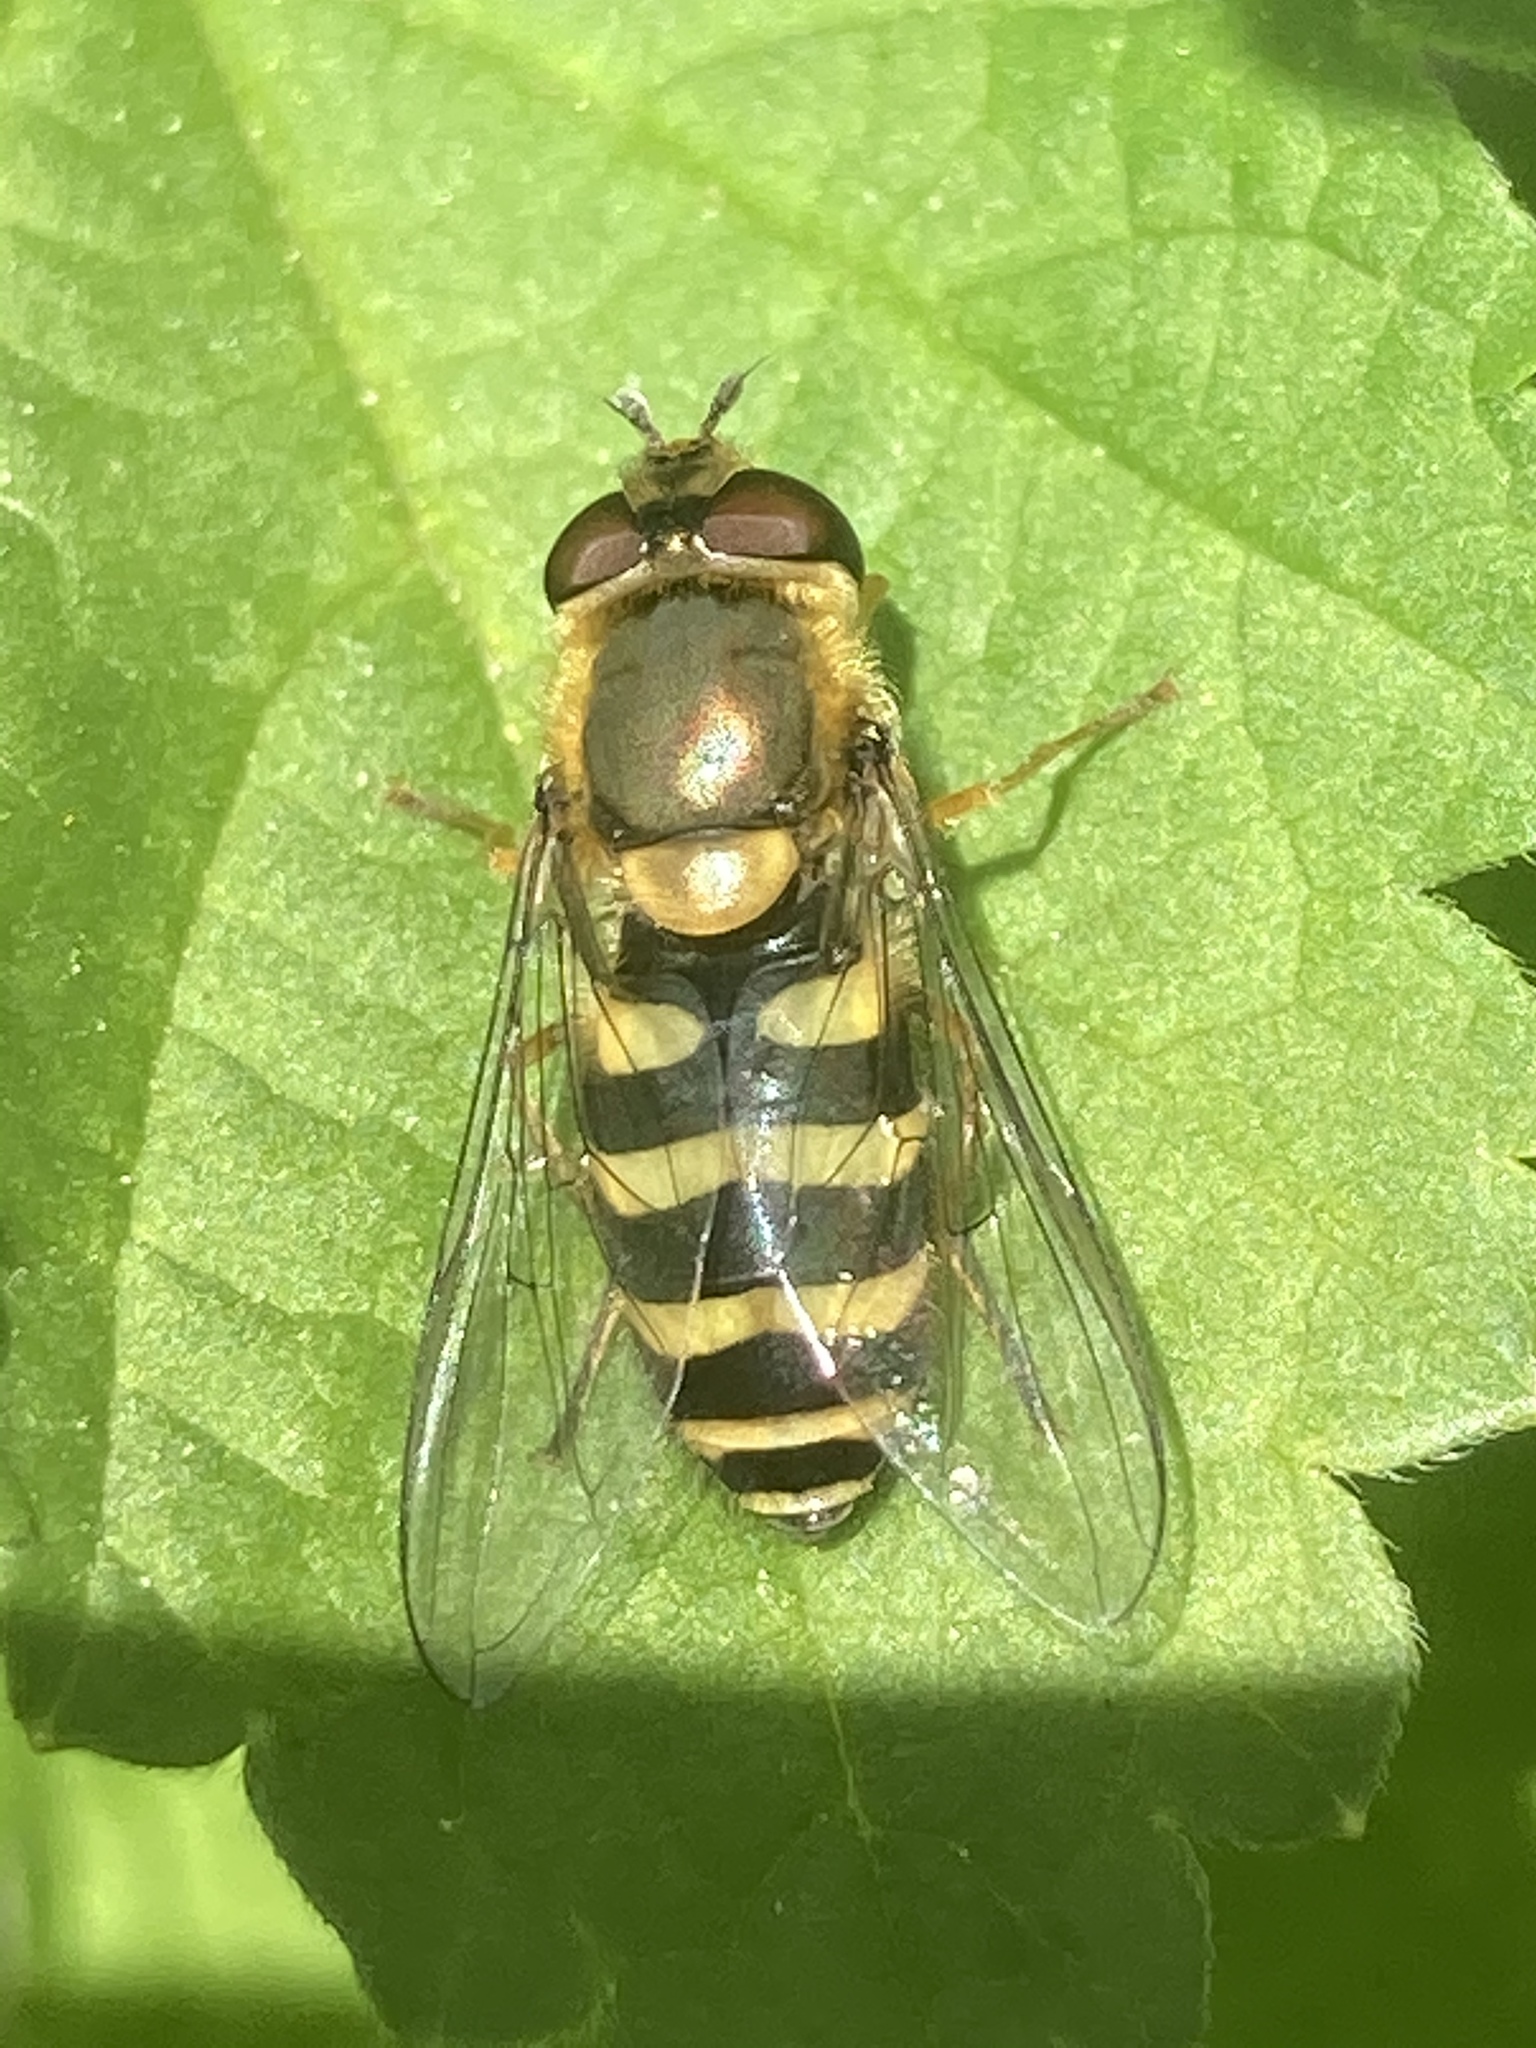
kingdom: Animalia
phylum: Arthropoda
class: Insecta
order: Diptera
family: Syrphidae
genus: Syrphus
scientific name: Syrphus
